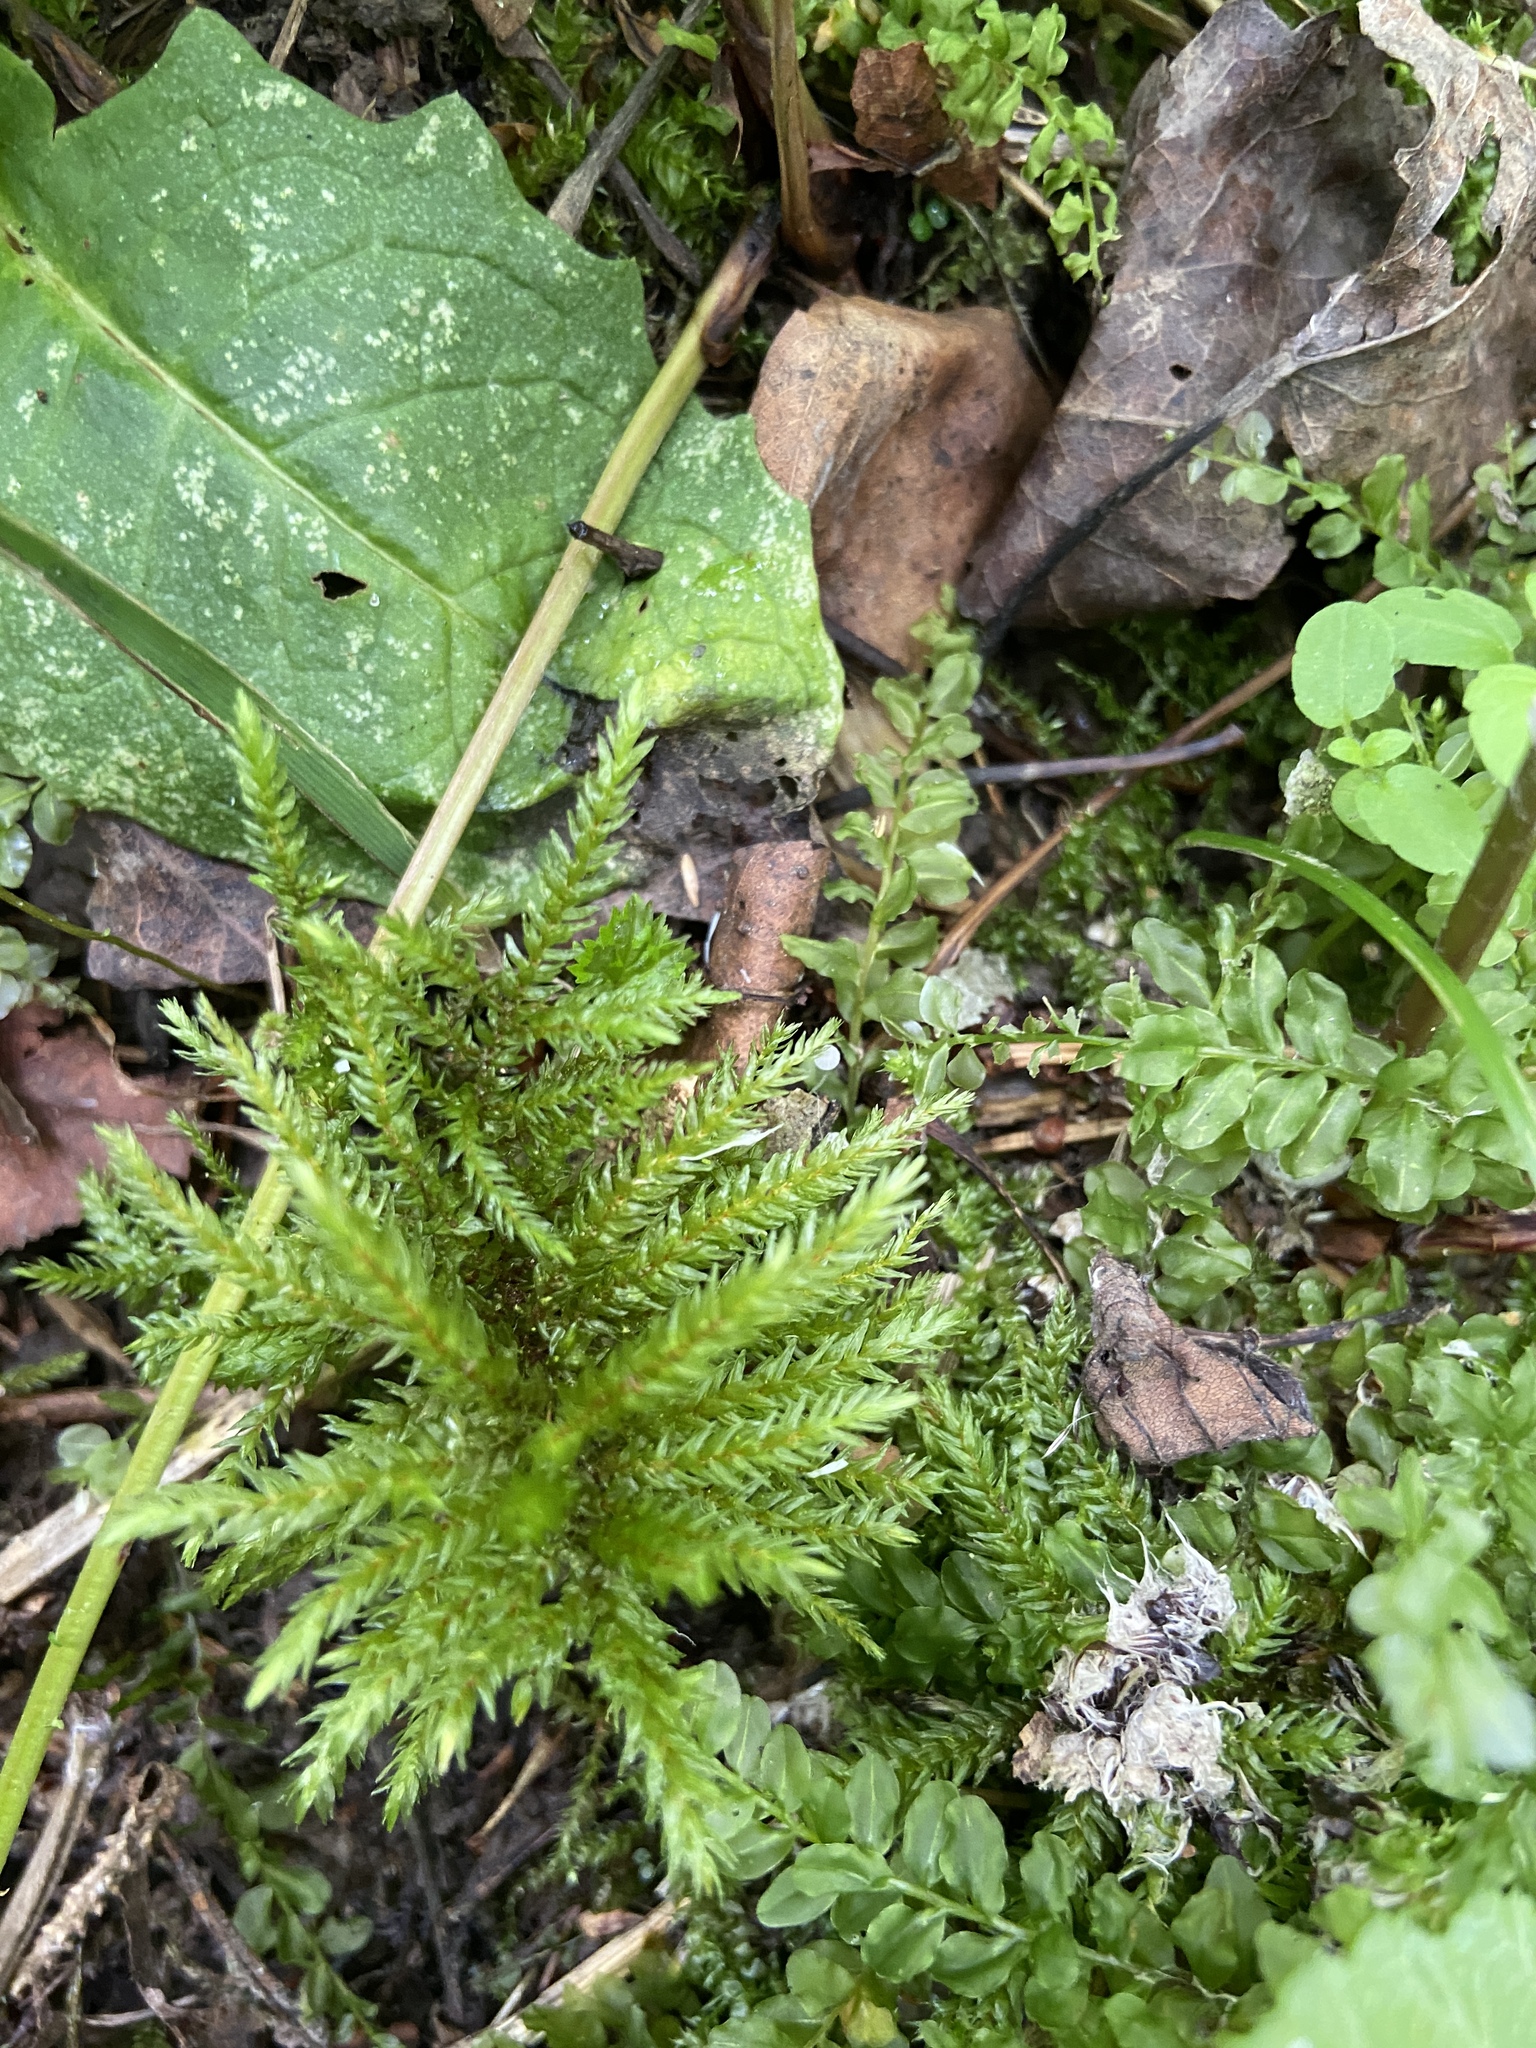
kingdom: Plantae
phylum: Bryophyta
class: Bryopsida
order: Hypnales
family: Climaciaceae
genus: Climacium
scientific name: Climacium dendroides
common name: Northern tree moss
